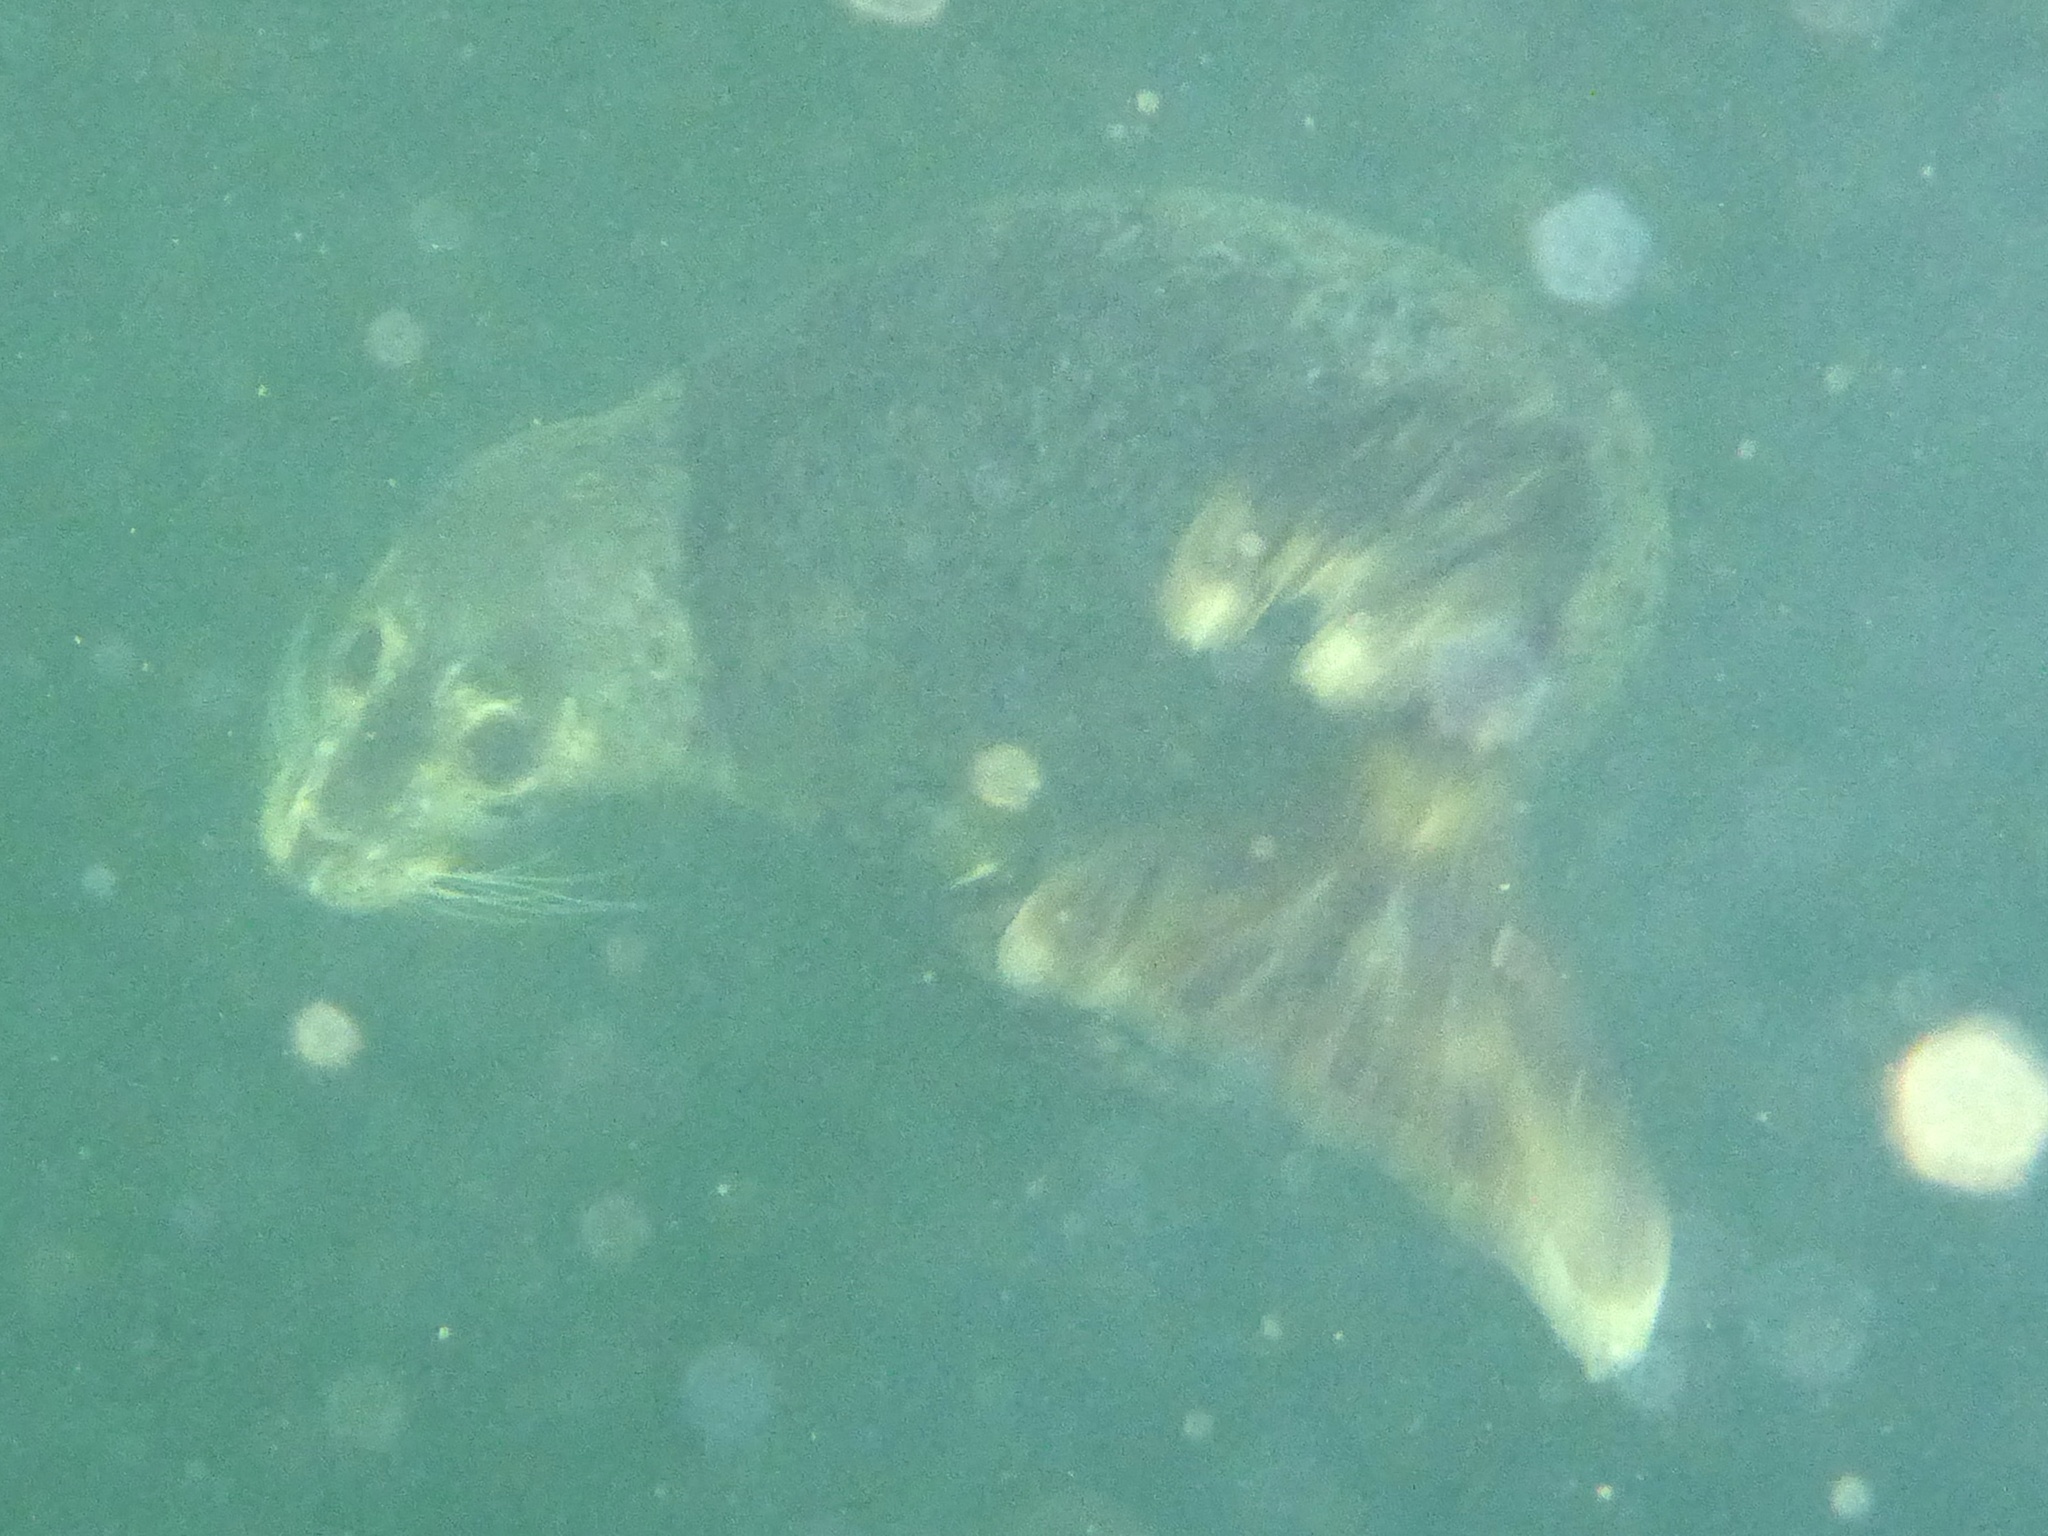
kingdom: Animalia
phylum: Chordata
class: Mammalia
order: Carnivora
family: Phocidae
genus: Phoca
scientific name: Phoca vitulina
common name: Harbor seal
